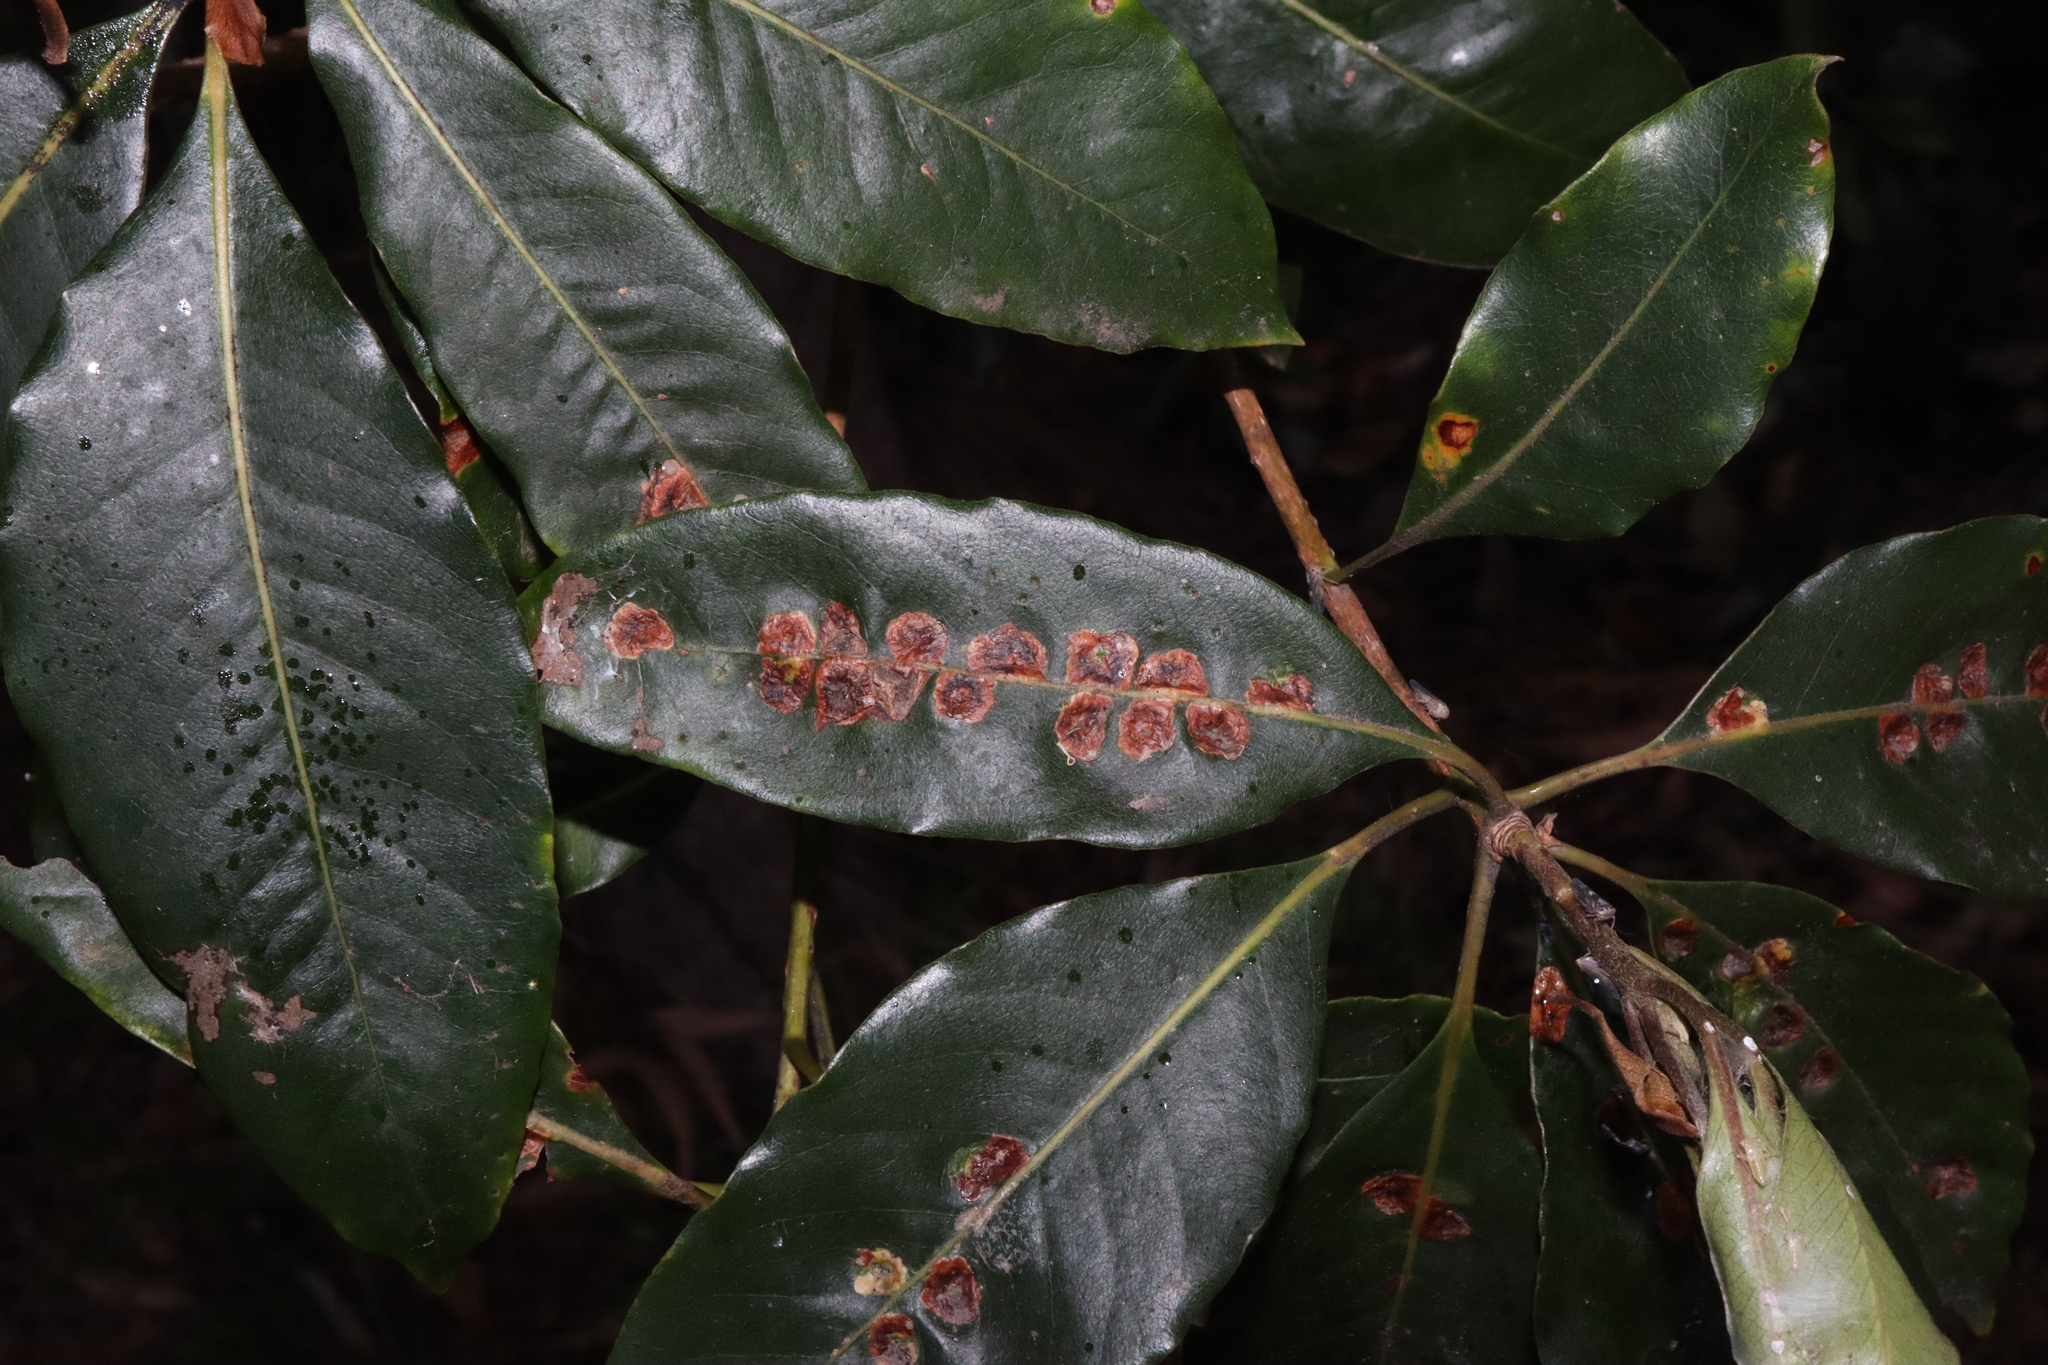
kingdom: Animalia
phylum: Arthropoda
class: Insecta
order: Diptera
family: Agromyzidae
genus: Phytoliriomyza
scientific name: Phytoliriomyza pittosporophylli
